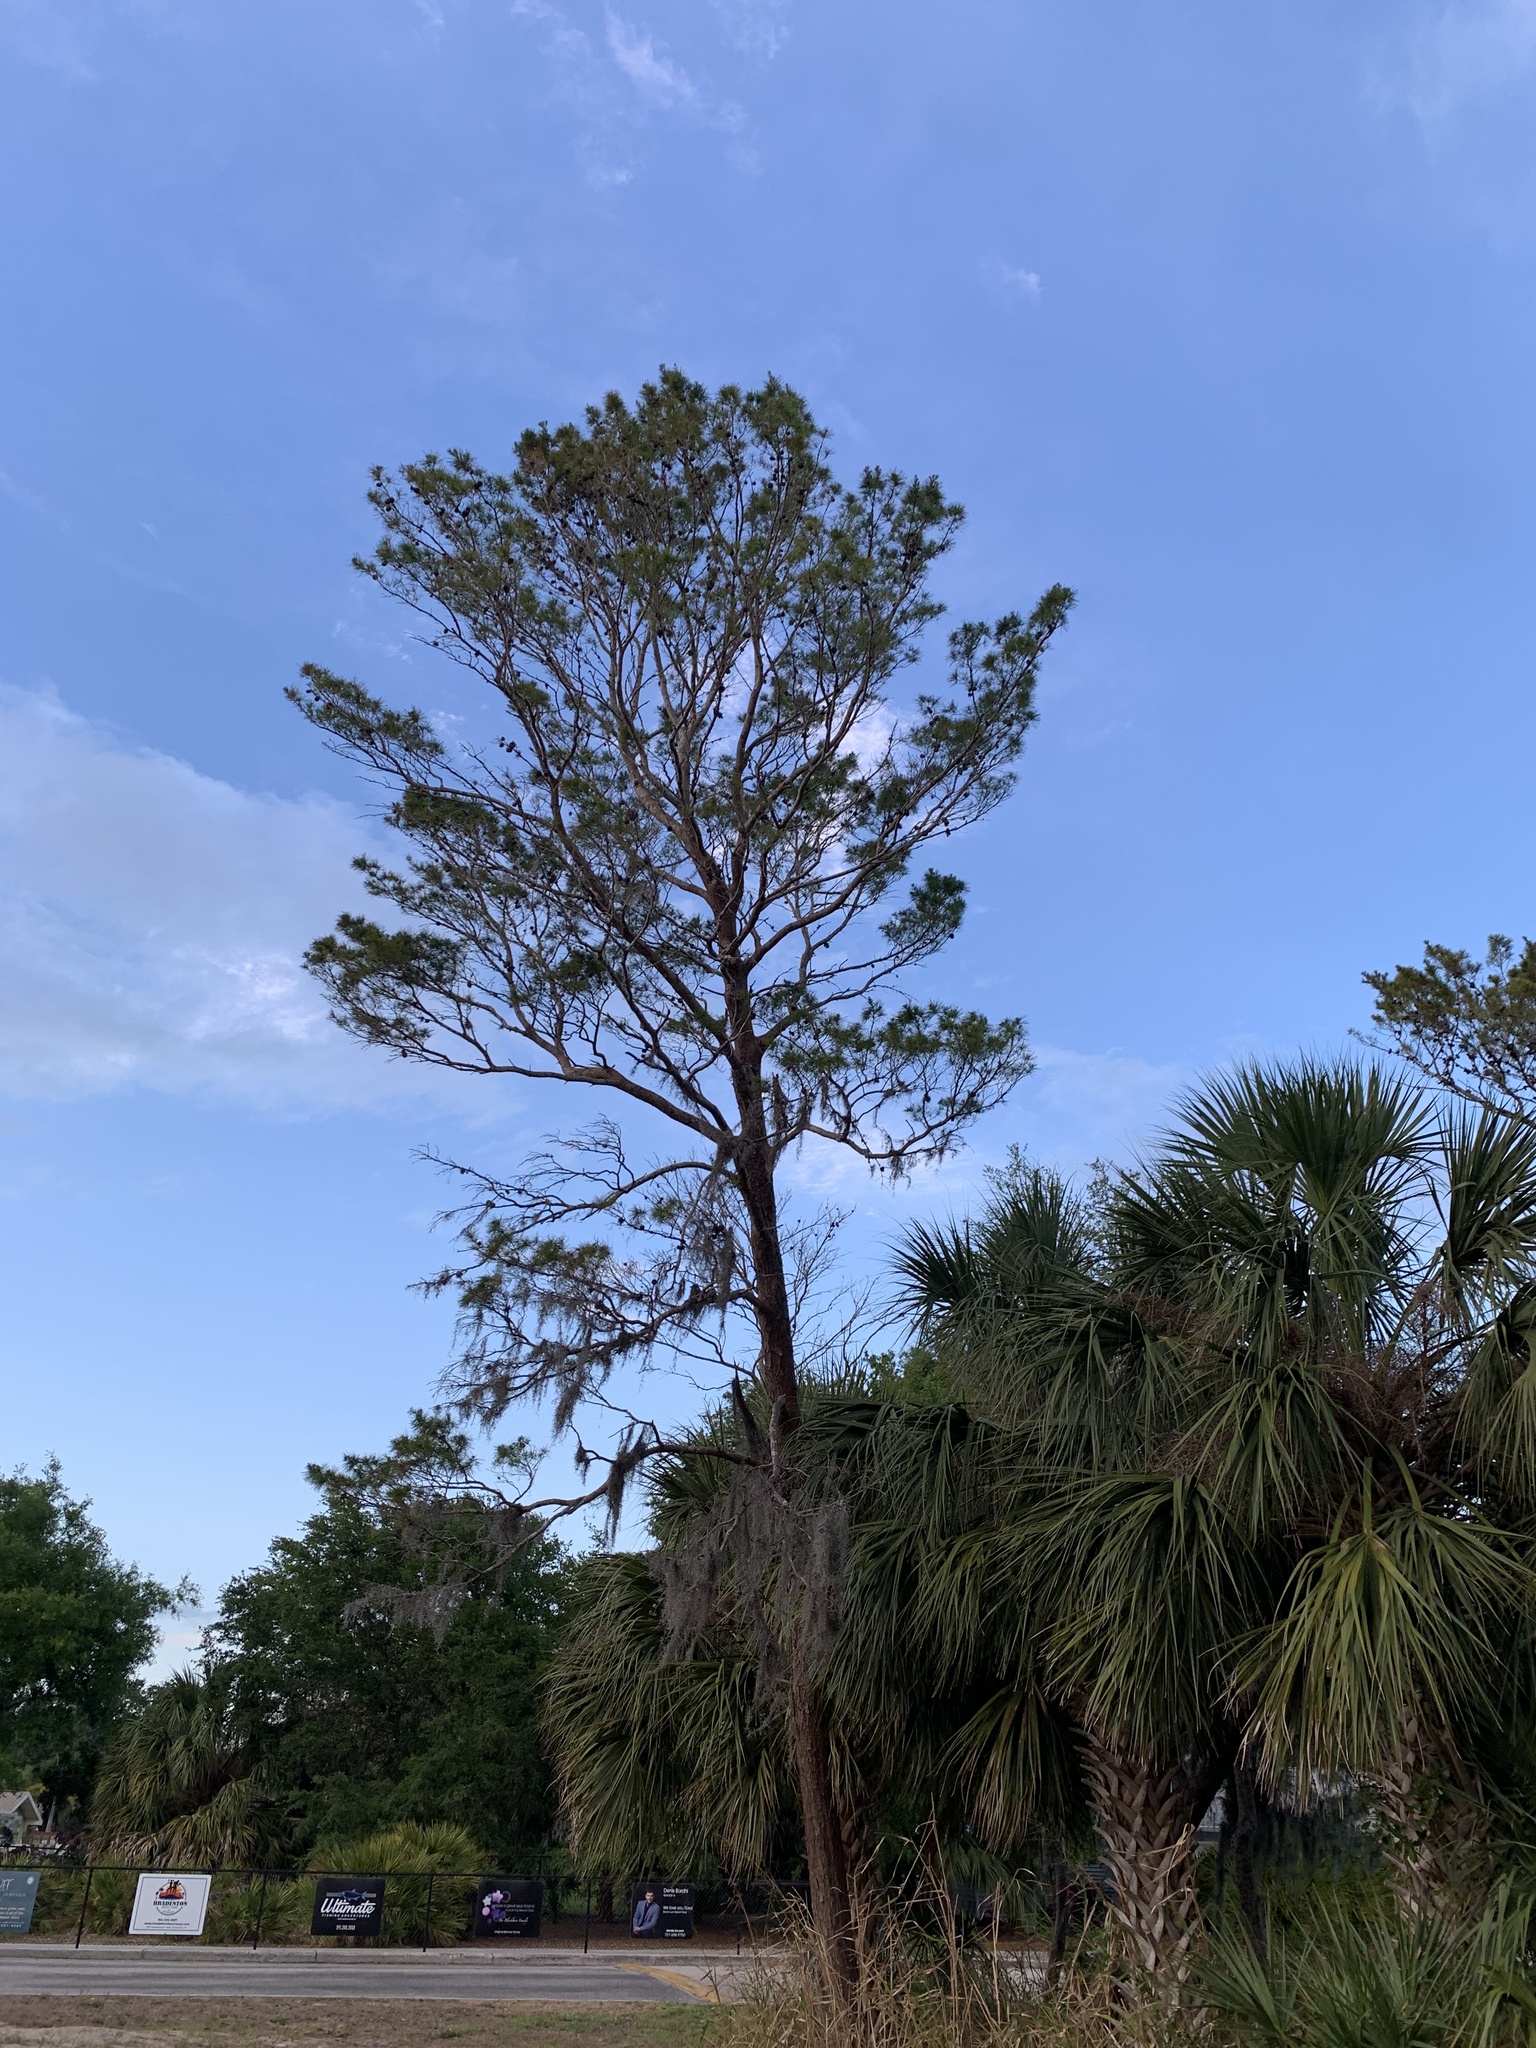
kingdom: Plantae
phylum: Tracheophyta
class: Pinopsida
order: Pinales
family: Pinaceae
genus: Pinus
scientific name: Pinus clausa
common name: Sand pine
